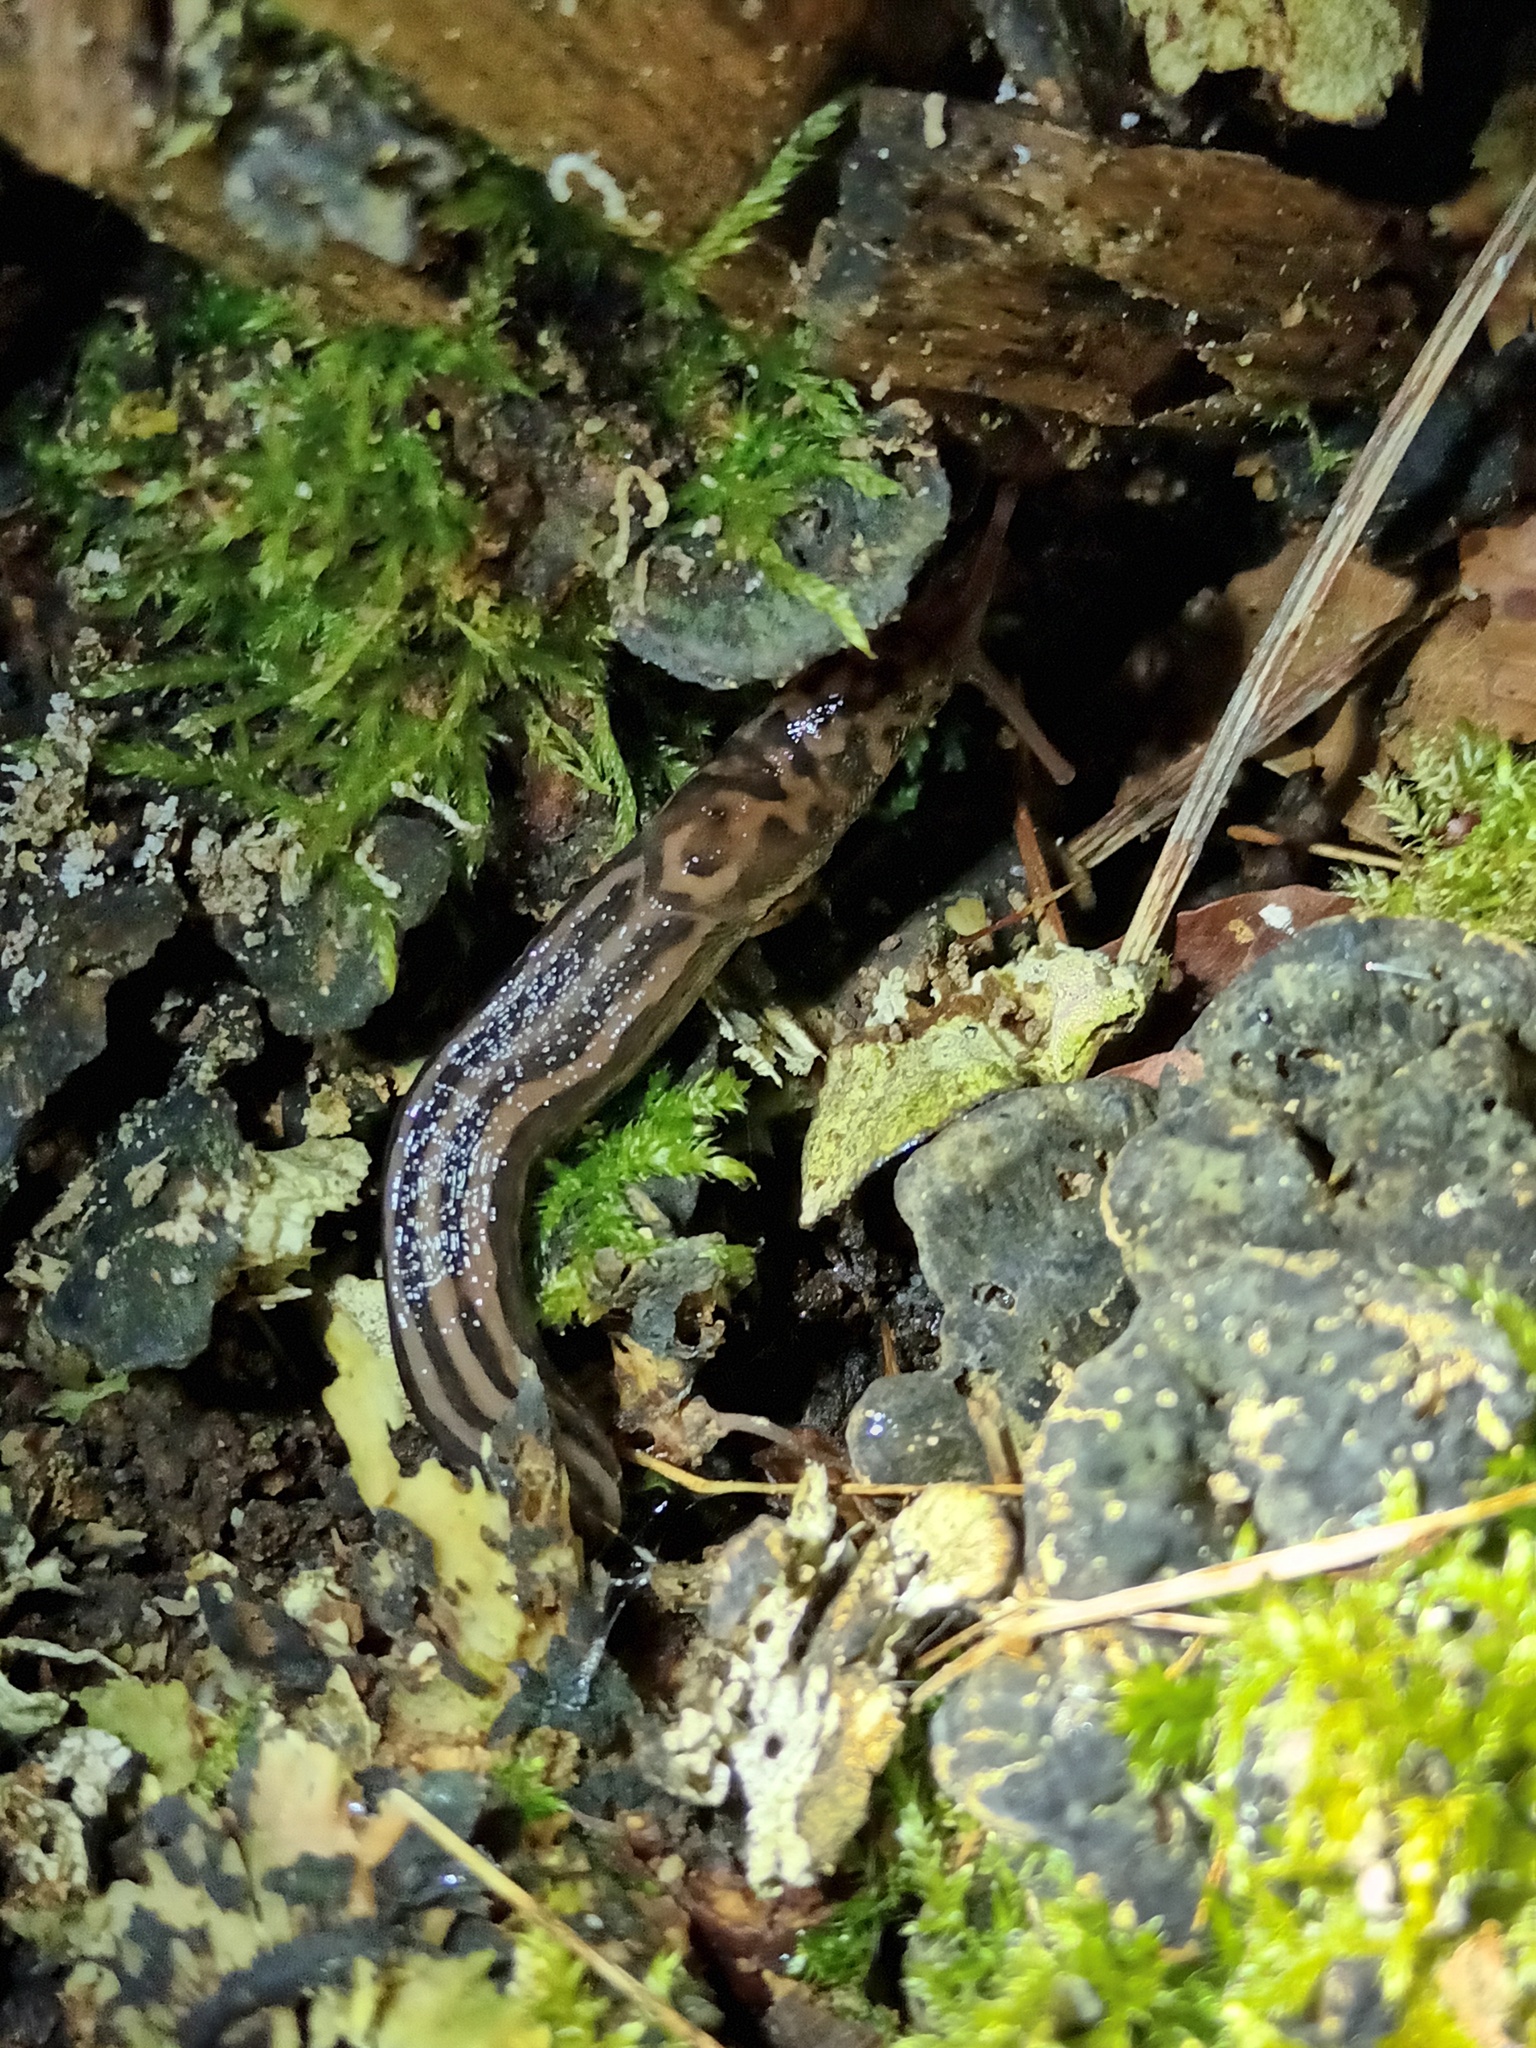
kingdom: Animalia
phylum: Mollusca
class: Gastropoda
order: Stylommatophora
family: Limacidae
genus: Limax
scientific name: Limax maximus
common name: Great grey slug
